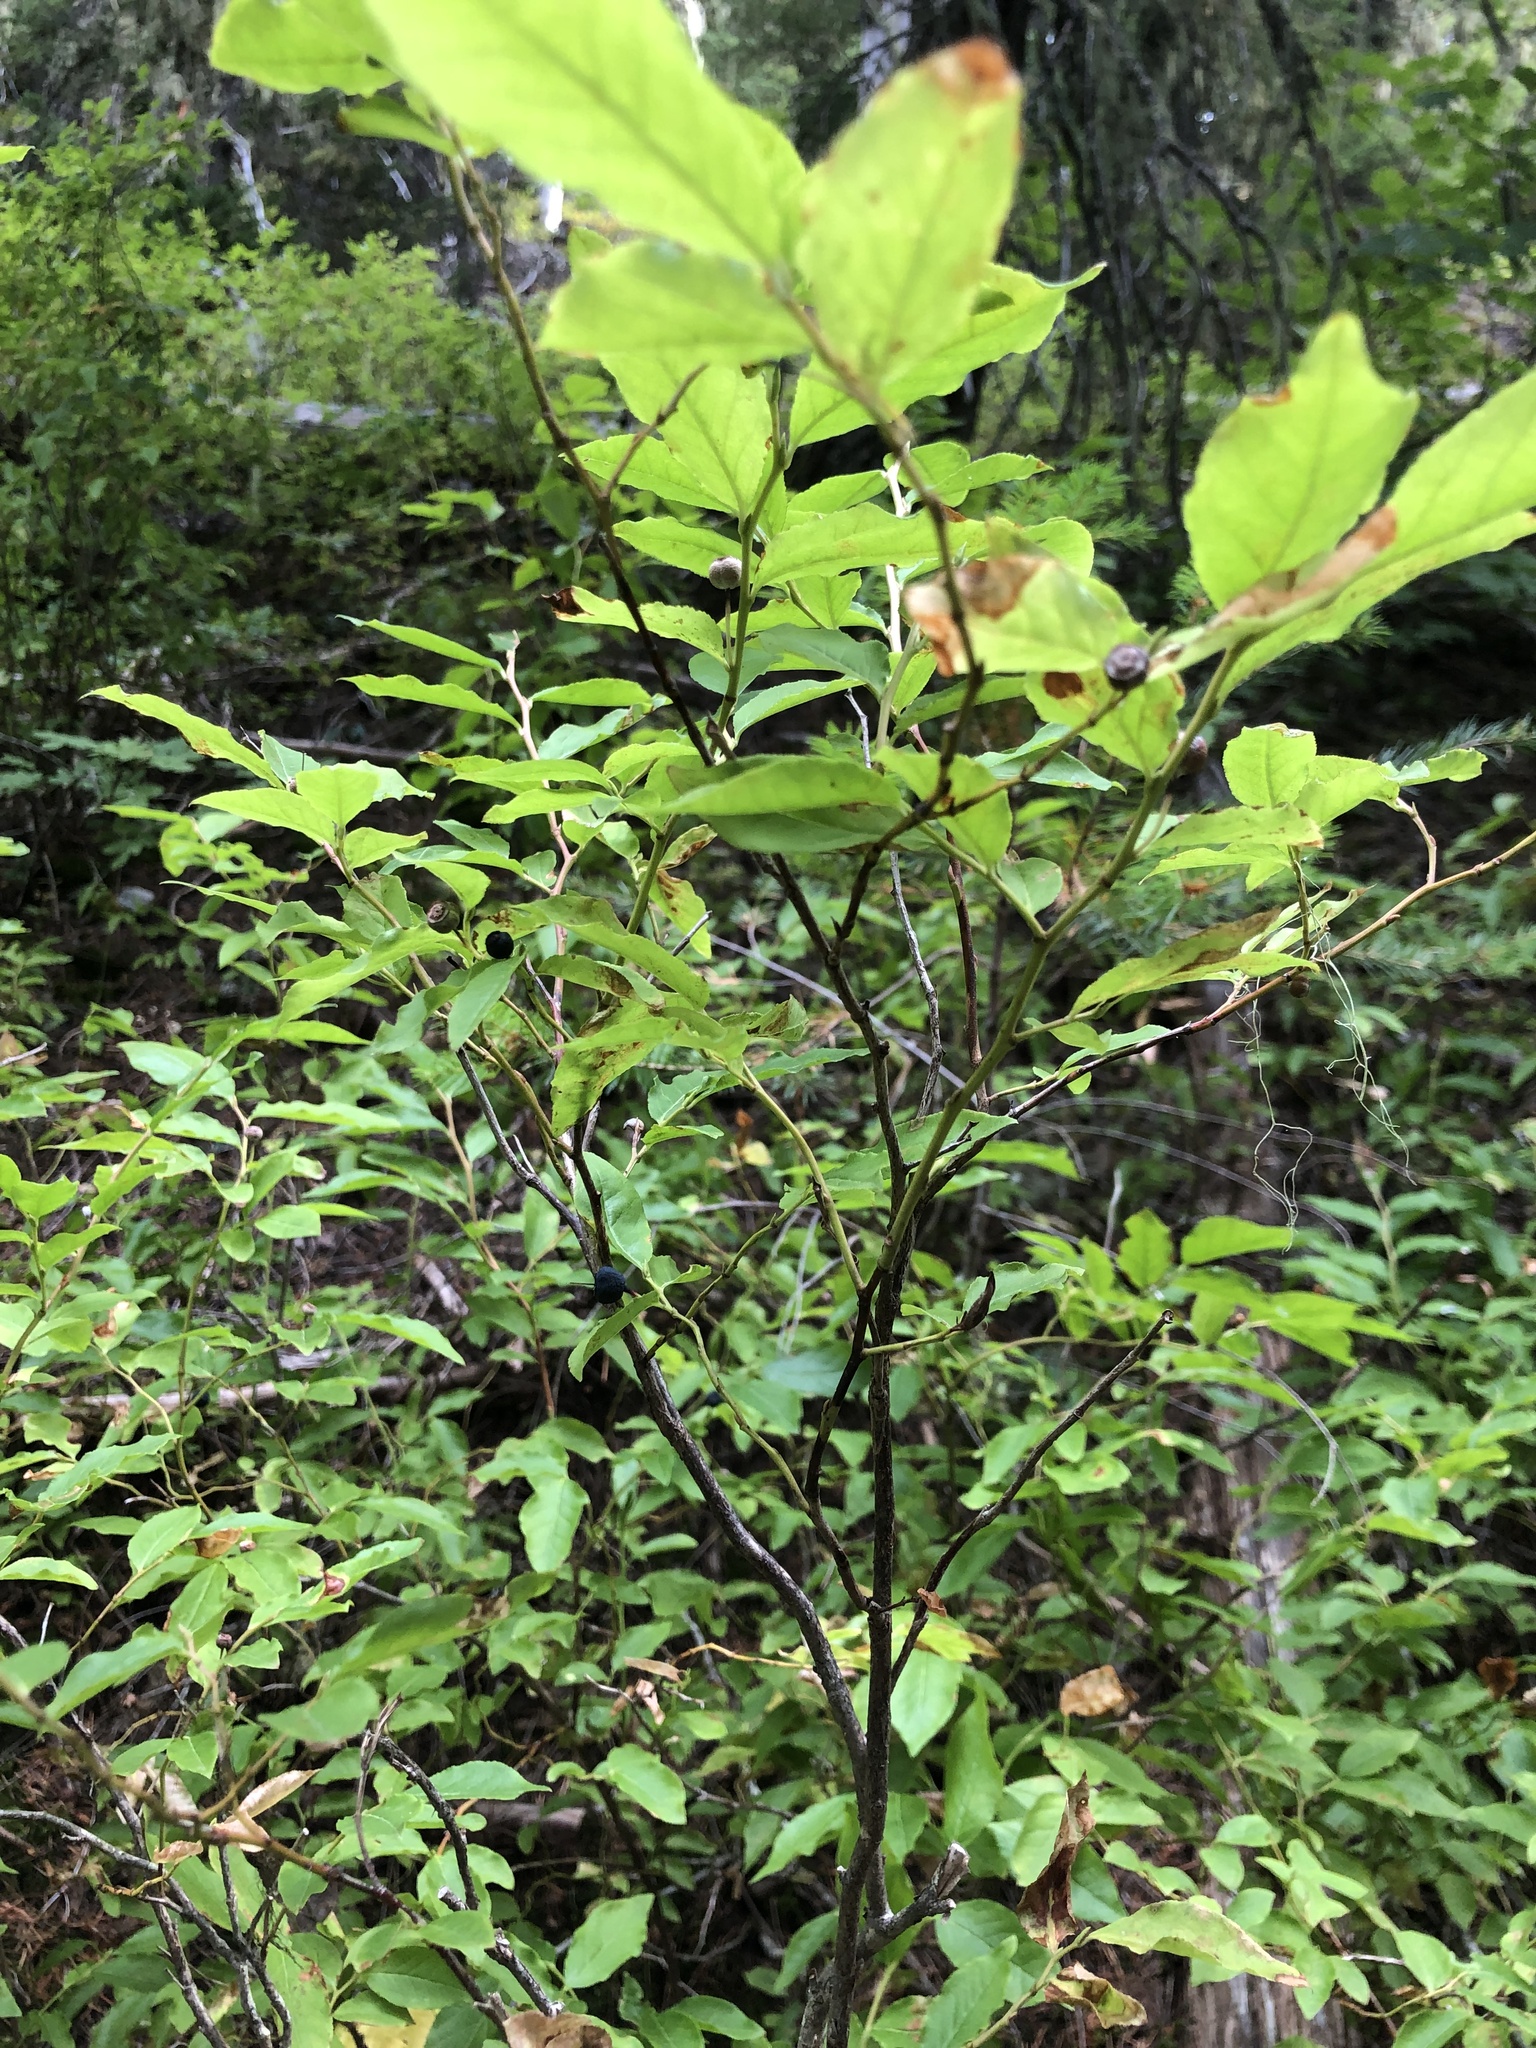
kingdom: Plantae
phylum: Tracheophyta
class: Magnoliopsida
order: Ericales
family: Ericaceae
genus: Vaccinium
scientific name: Vaccinium membranaceum
